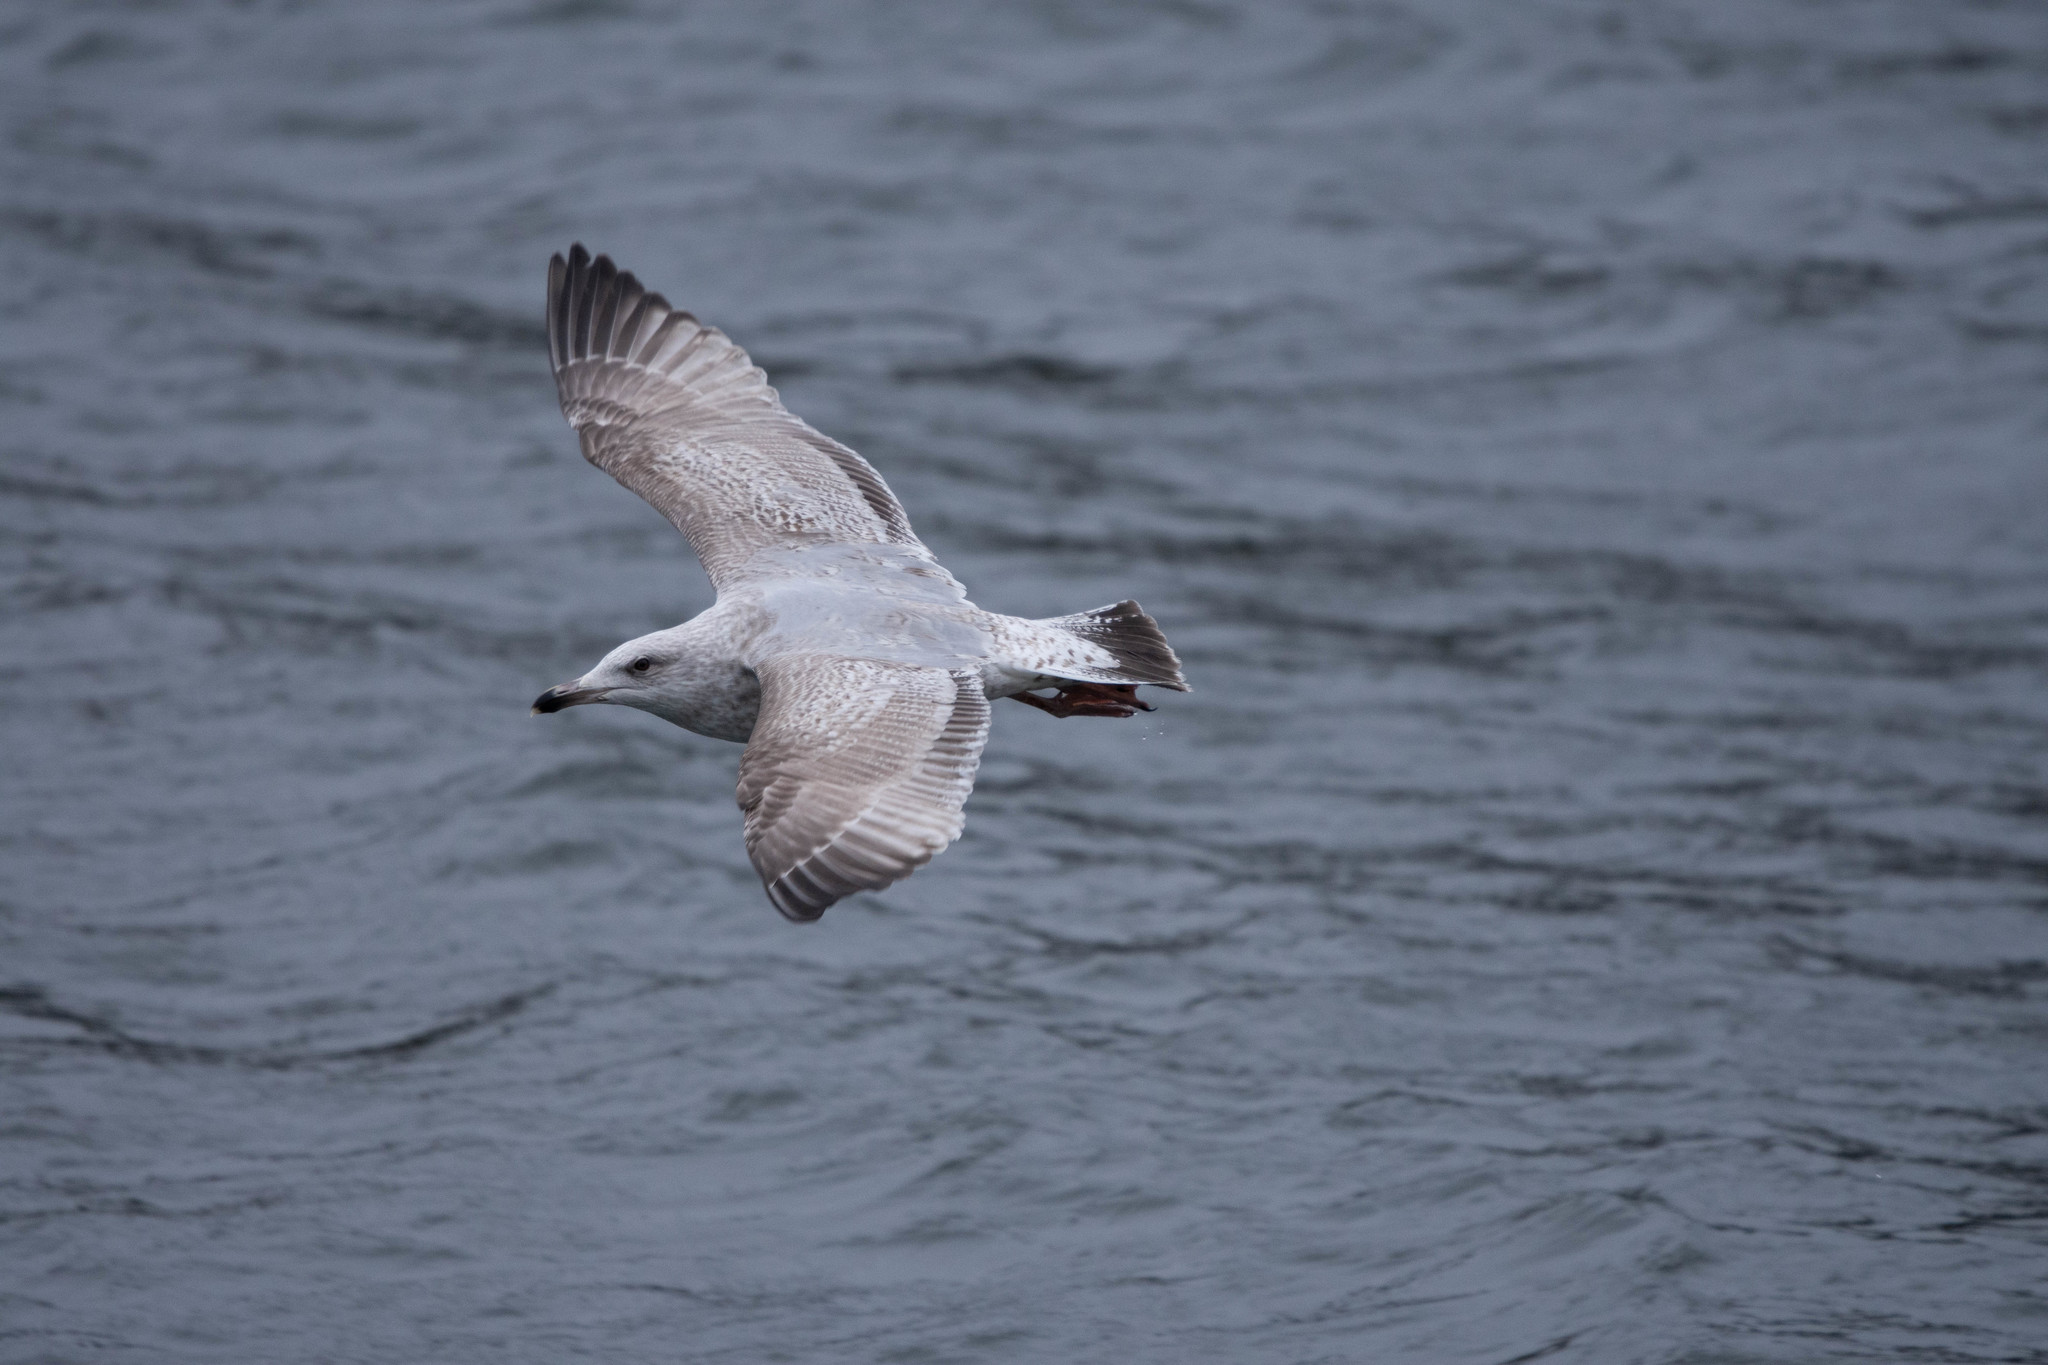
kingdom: Animalia
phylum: Chordata
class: Aves
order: Charadriiformes
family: Laridae
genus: Larus
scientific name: Larus argentatus
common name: Herring gull
